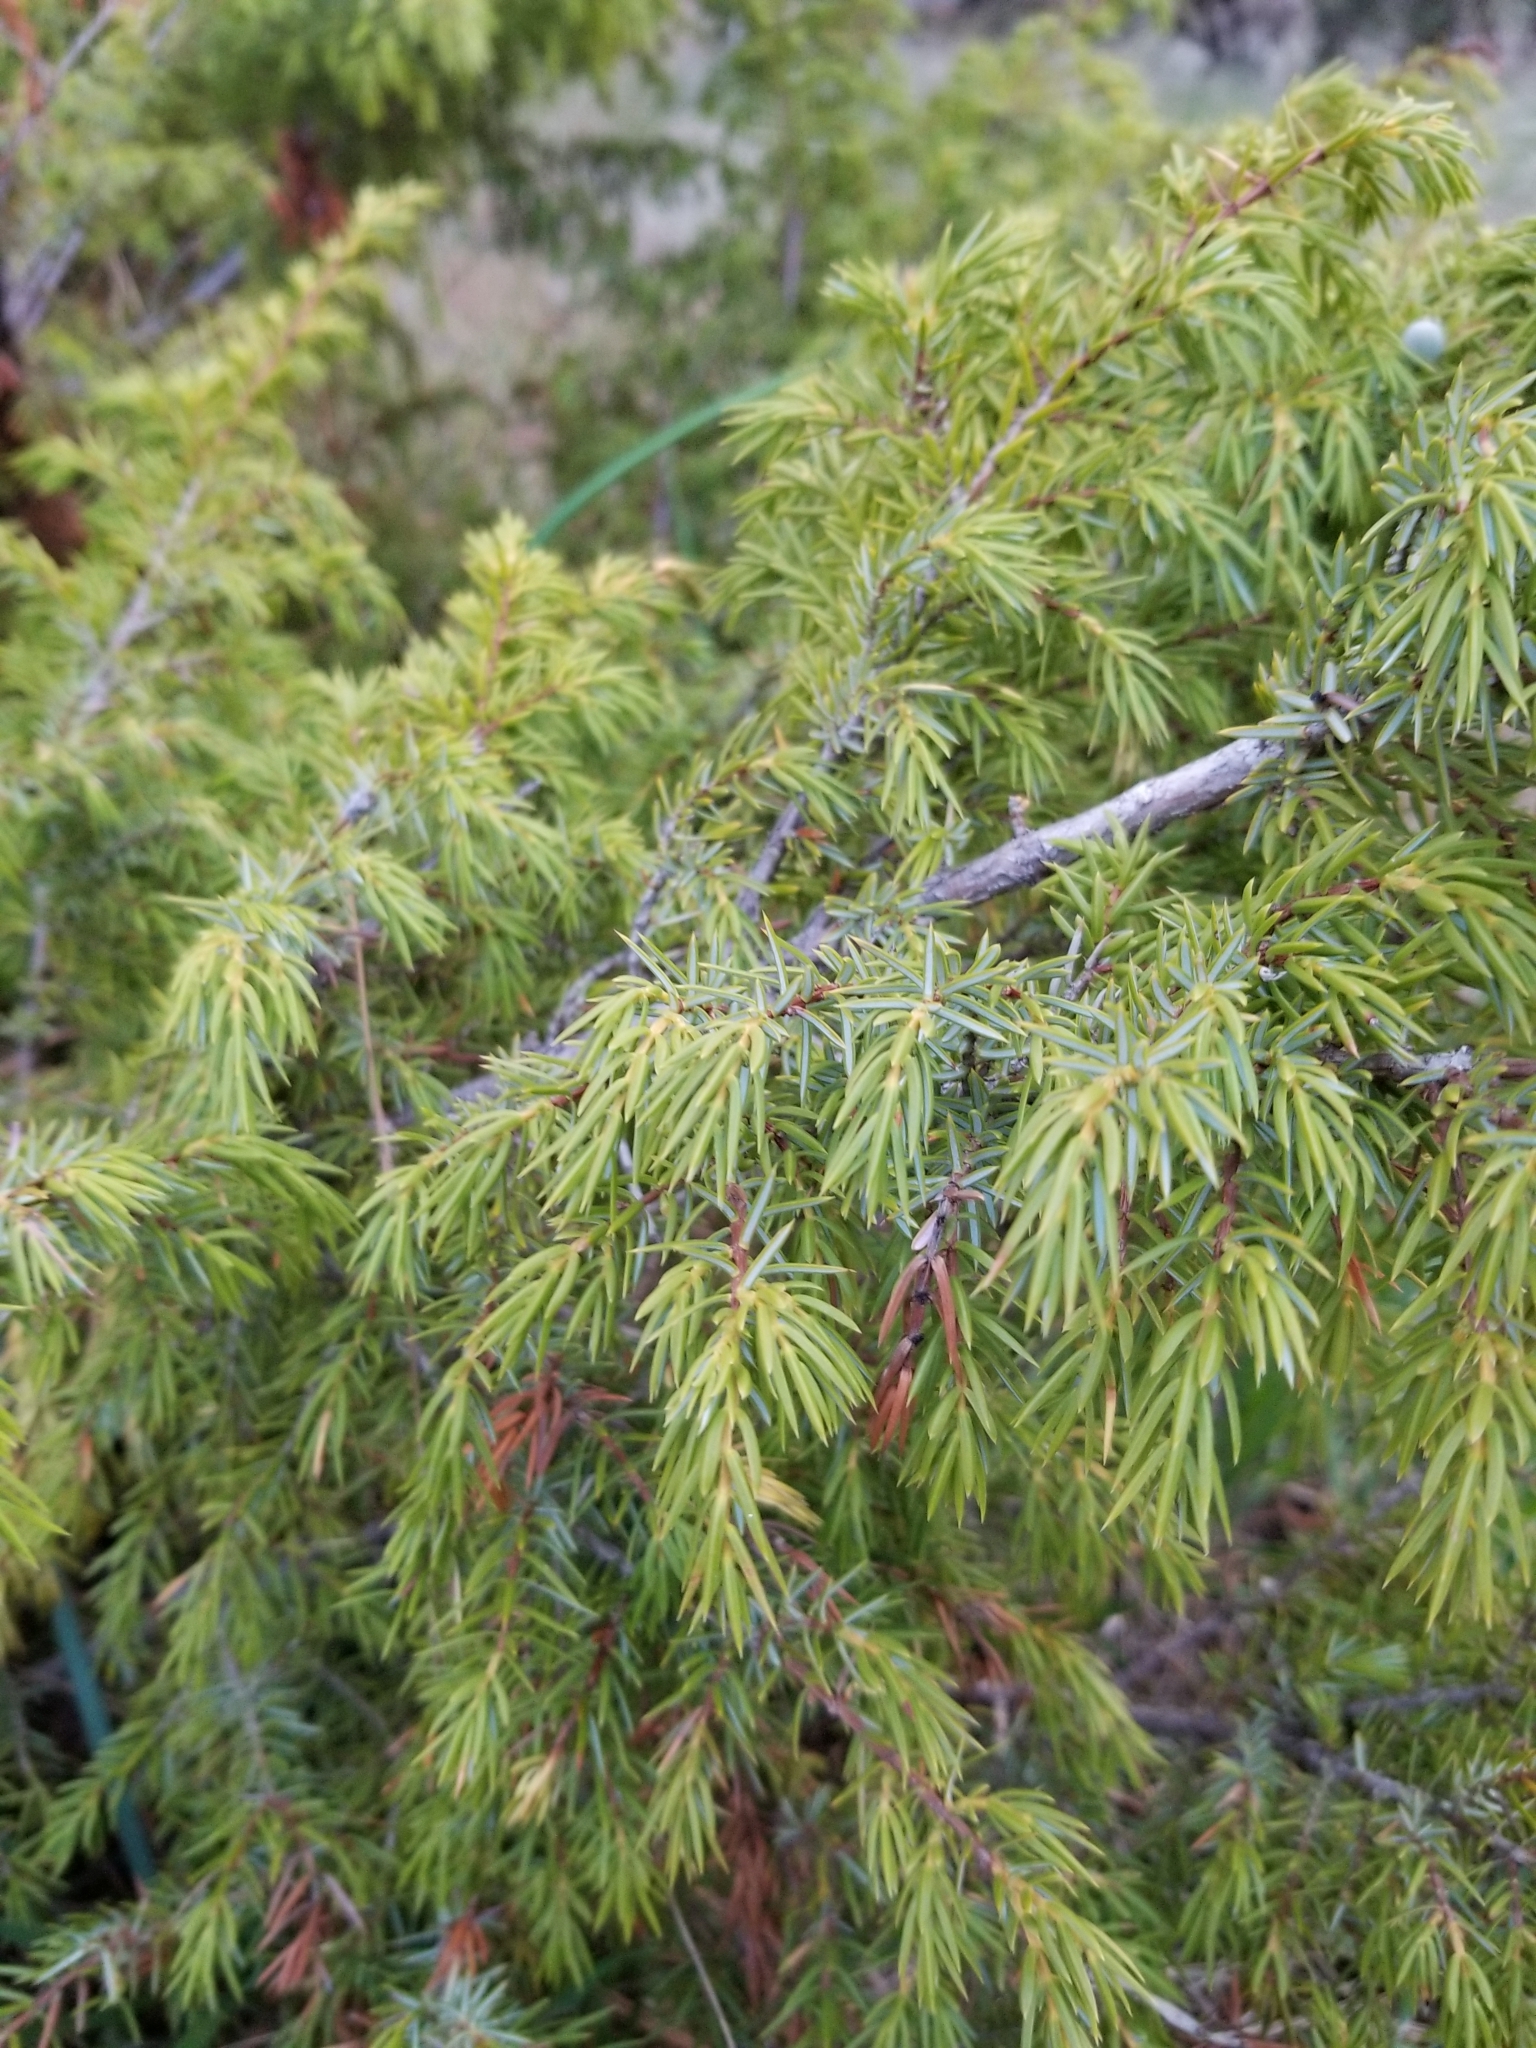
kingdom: Plantae
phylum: Tracheophyta
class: Pinopsida
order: Pinales
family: Cupressaceae
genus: Juniperus
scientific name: Juniperus communis
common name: Common juniper
